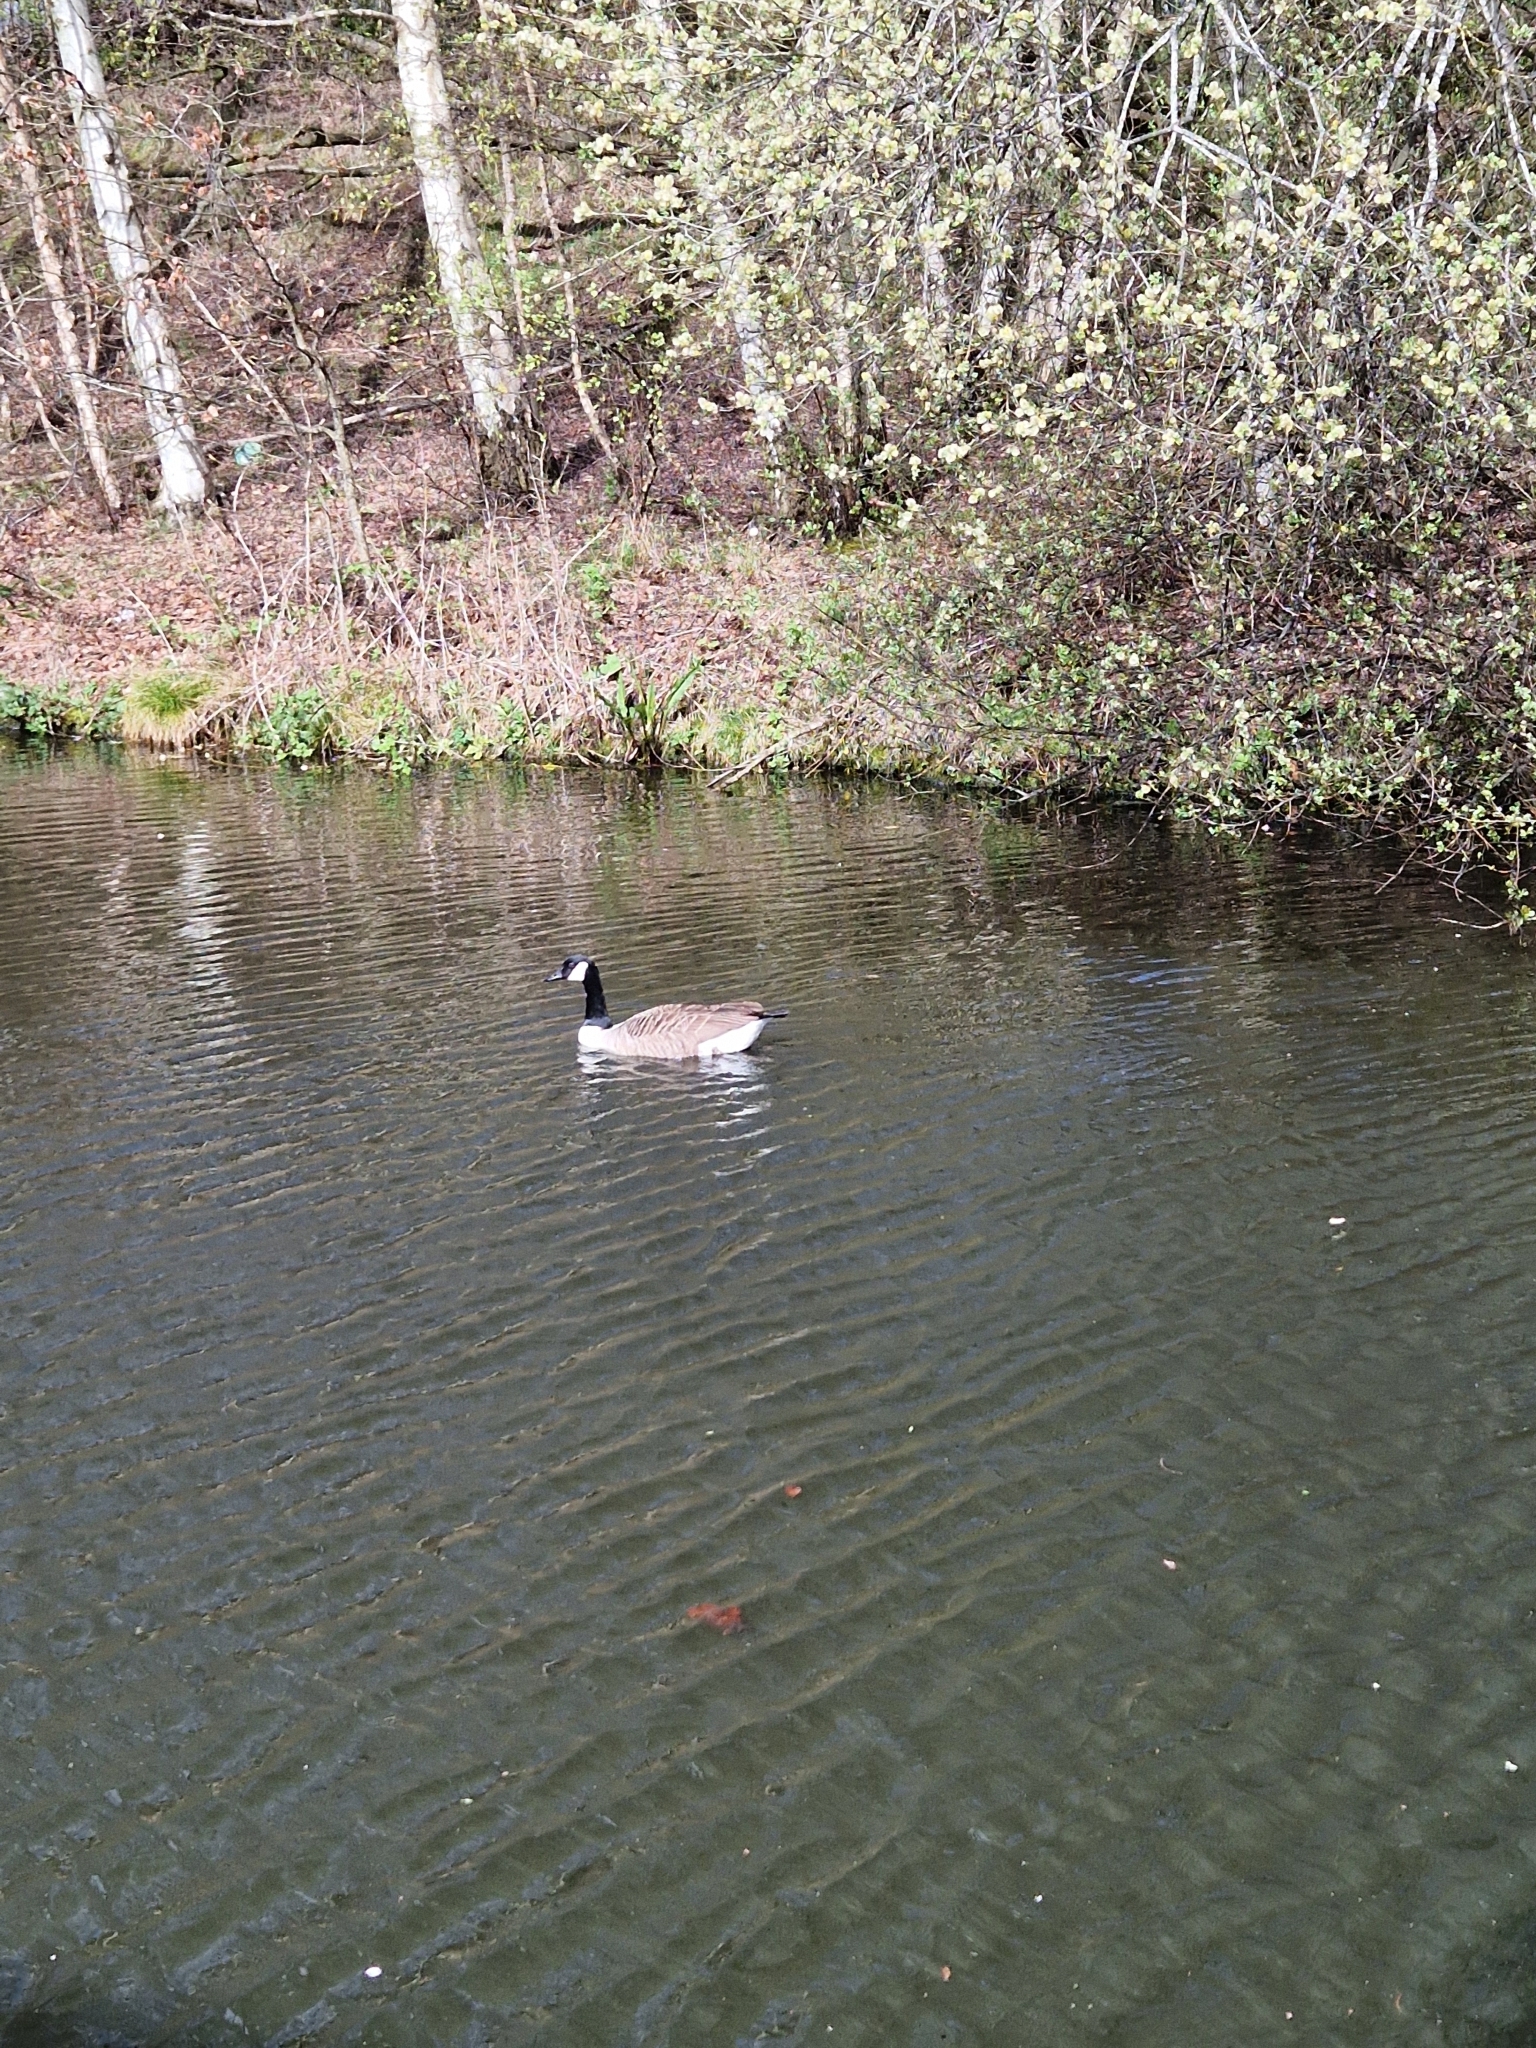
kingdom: Animalia
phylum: Chordata
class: Aves
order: Anseriformes
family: Anatidae
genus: Branta
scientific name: Branta canadensis
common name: Canada goose
